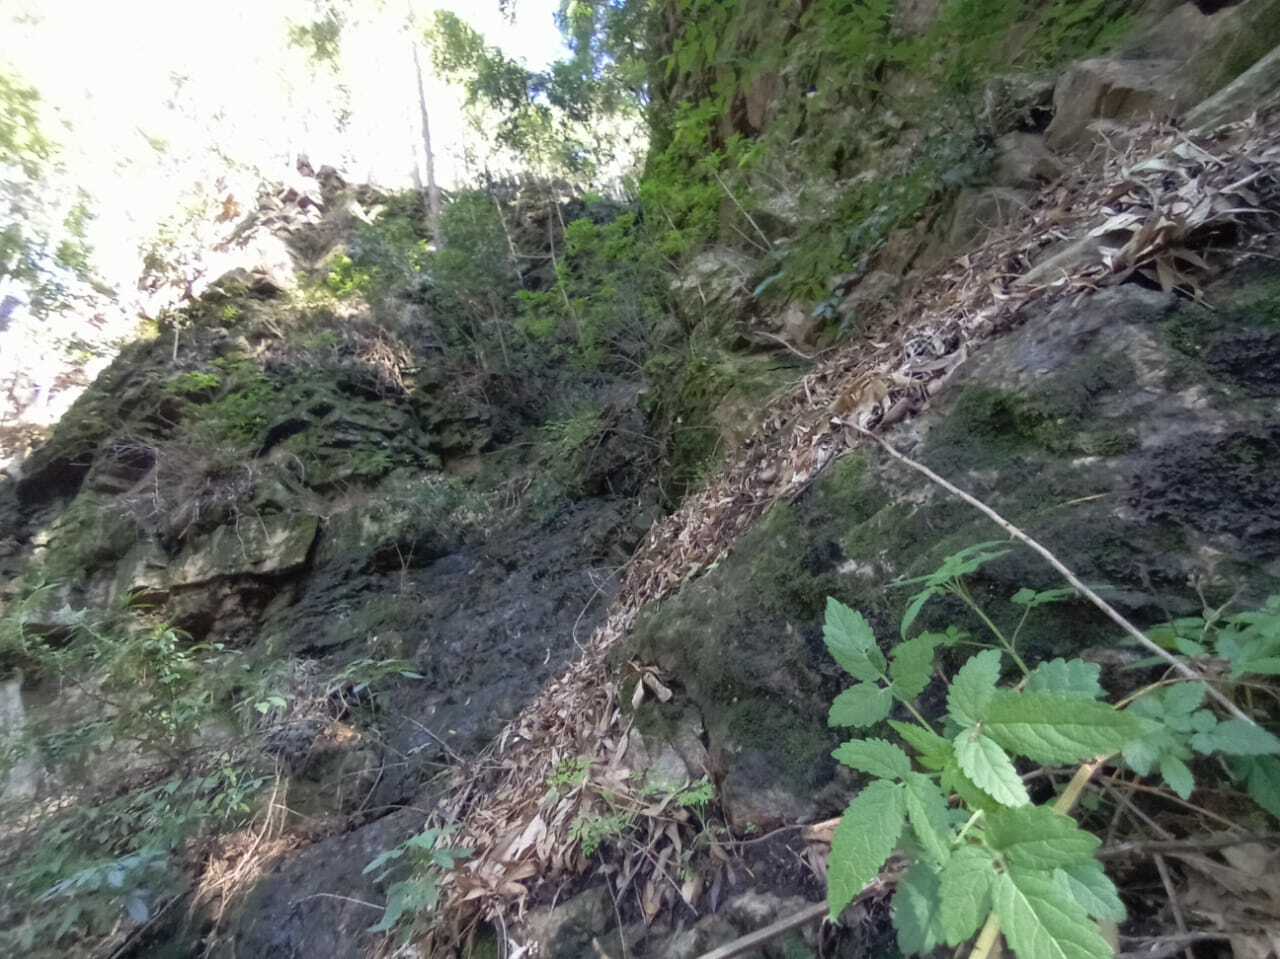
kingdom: Plantae
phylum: Tracheophyta
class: Magnoliopsida
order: Lamiales
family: Lamiaceae
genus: Cedronella
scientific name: Cedronella canariensis
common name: Canary islands balm
